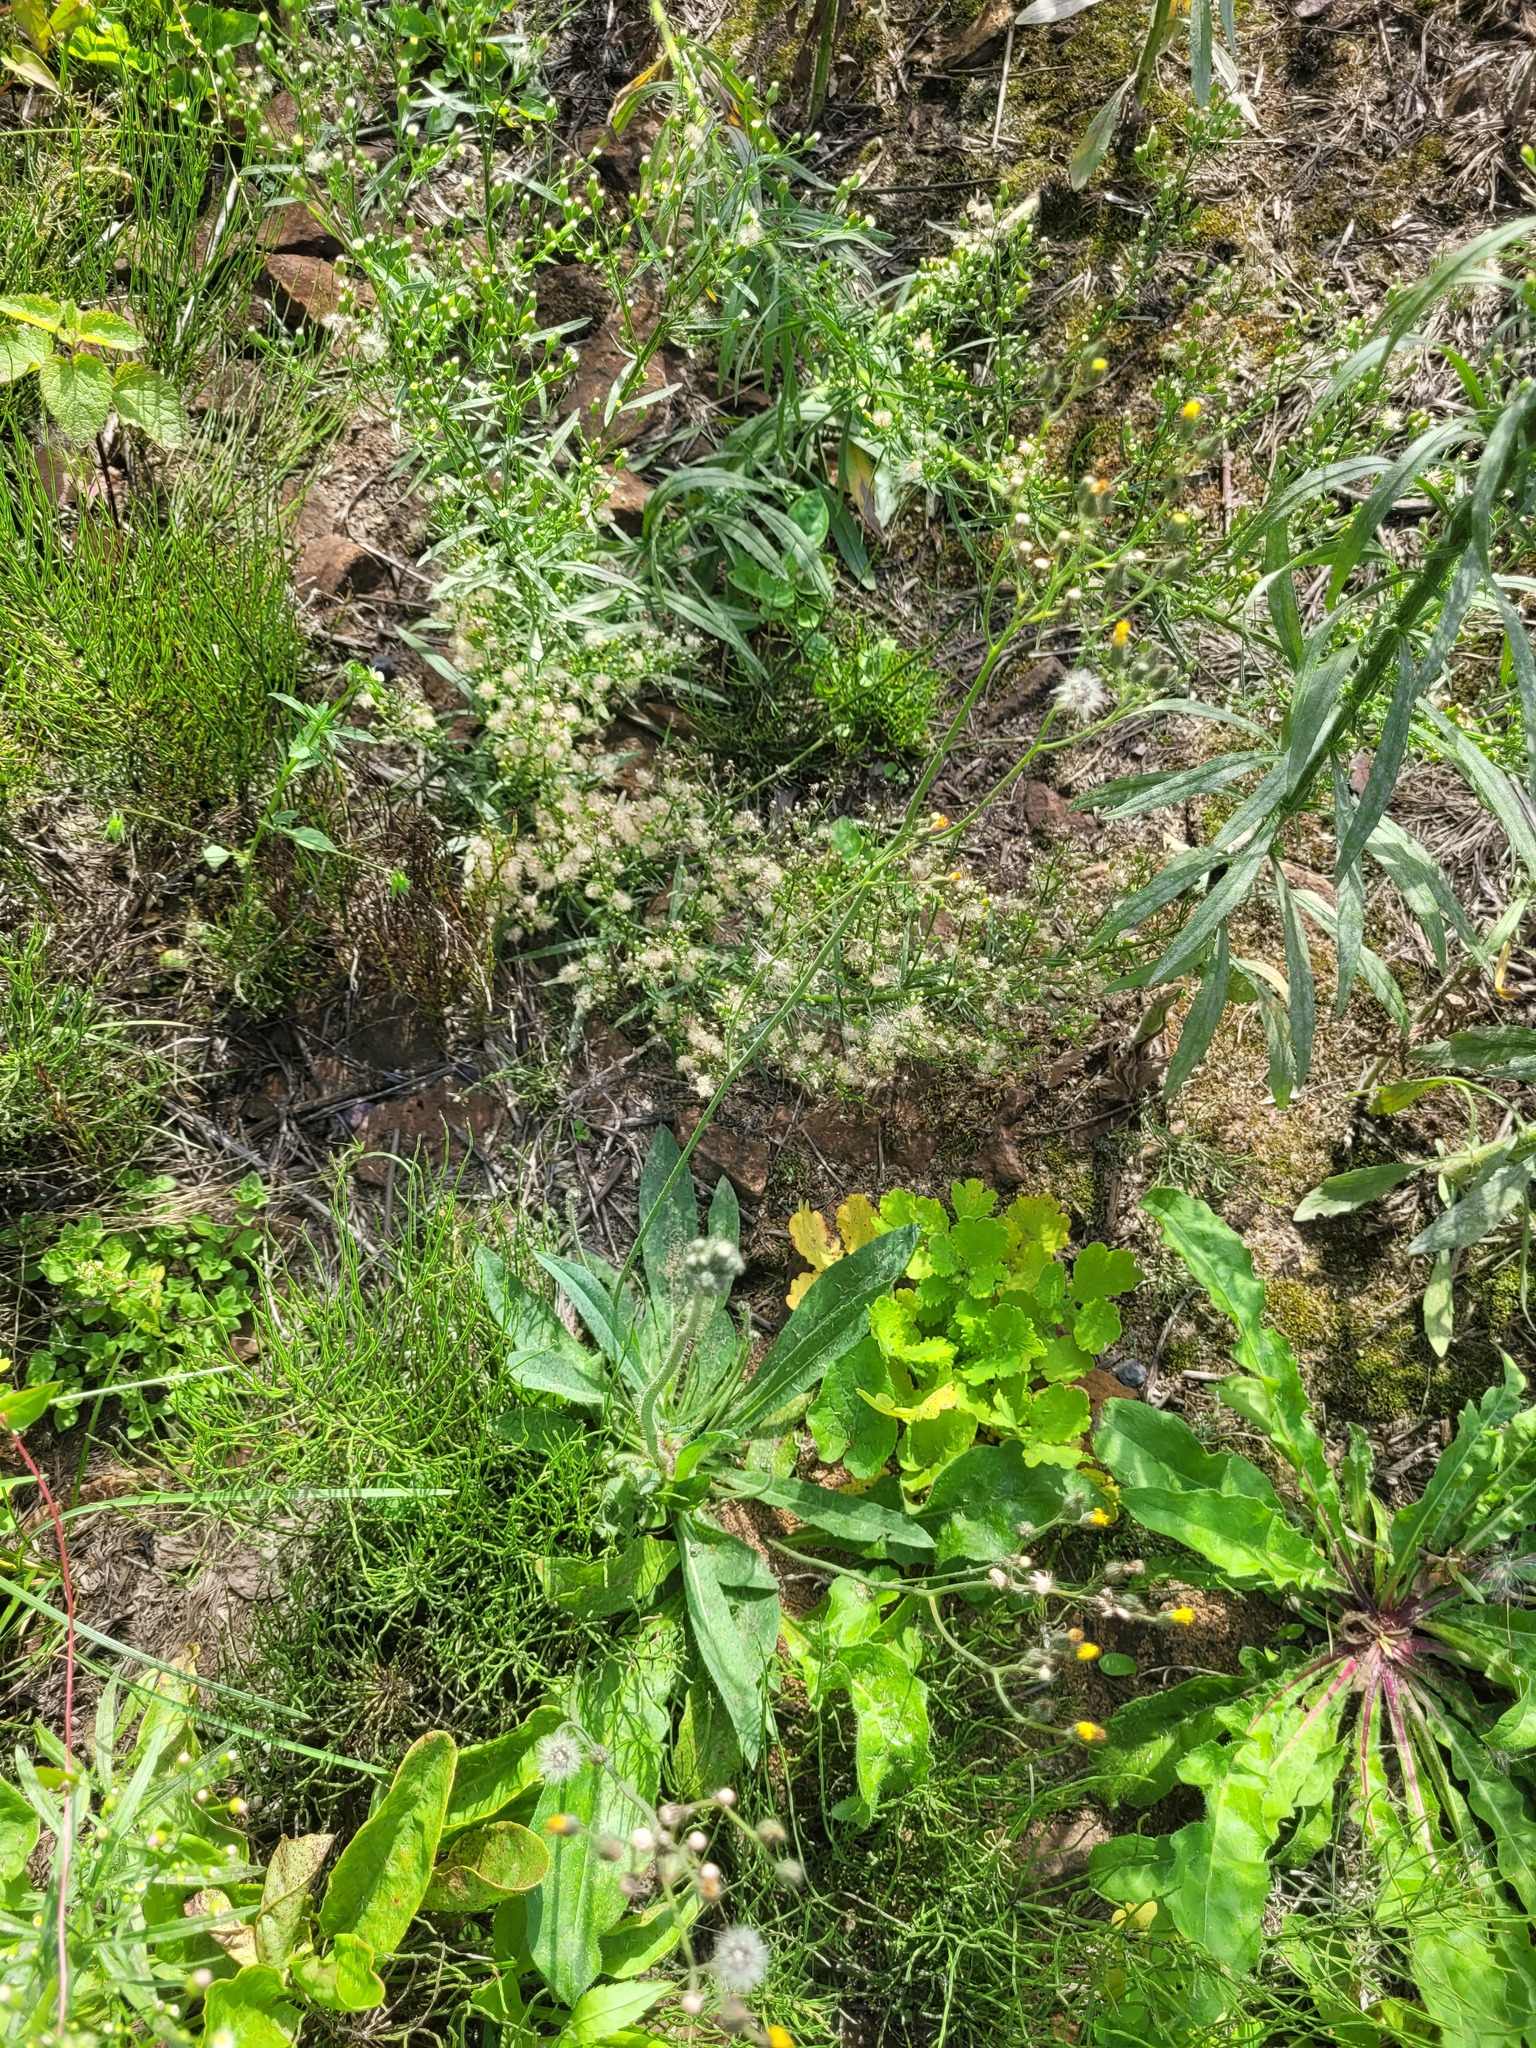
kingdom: Plantae
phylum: Tracheophyta
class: Magnoliopsida
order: Asterales
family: Asteraceae
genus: Pilosella
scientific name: Pilosella
